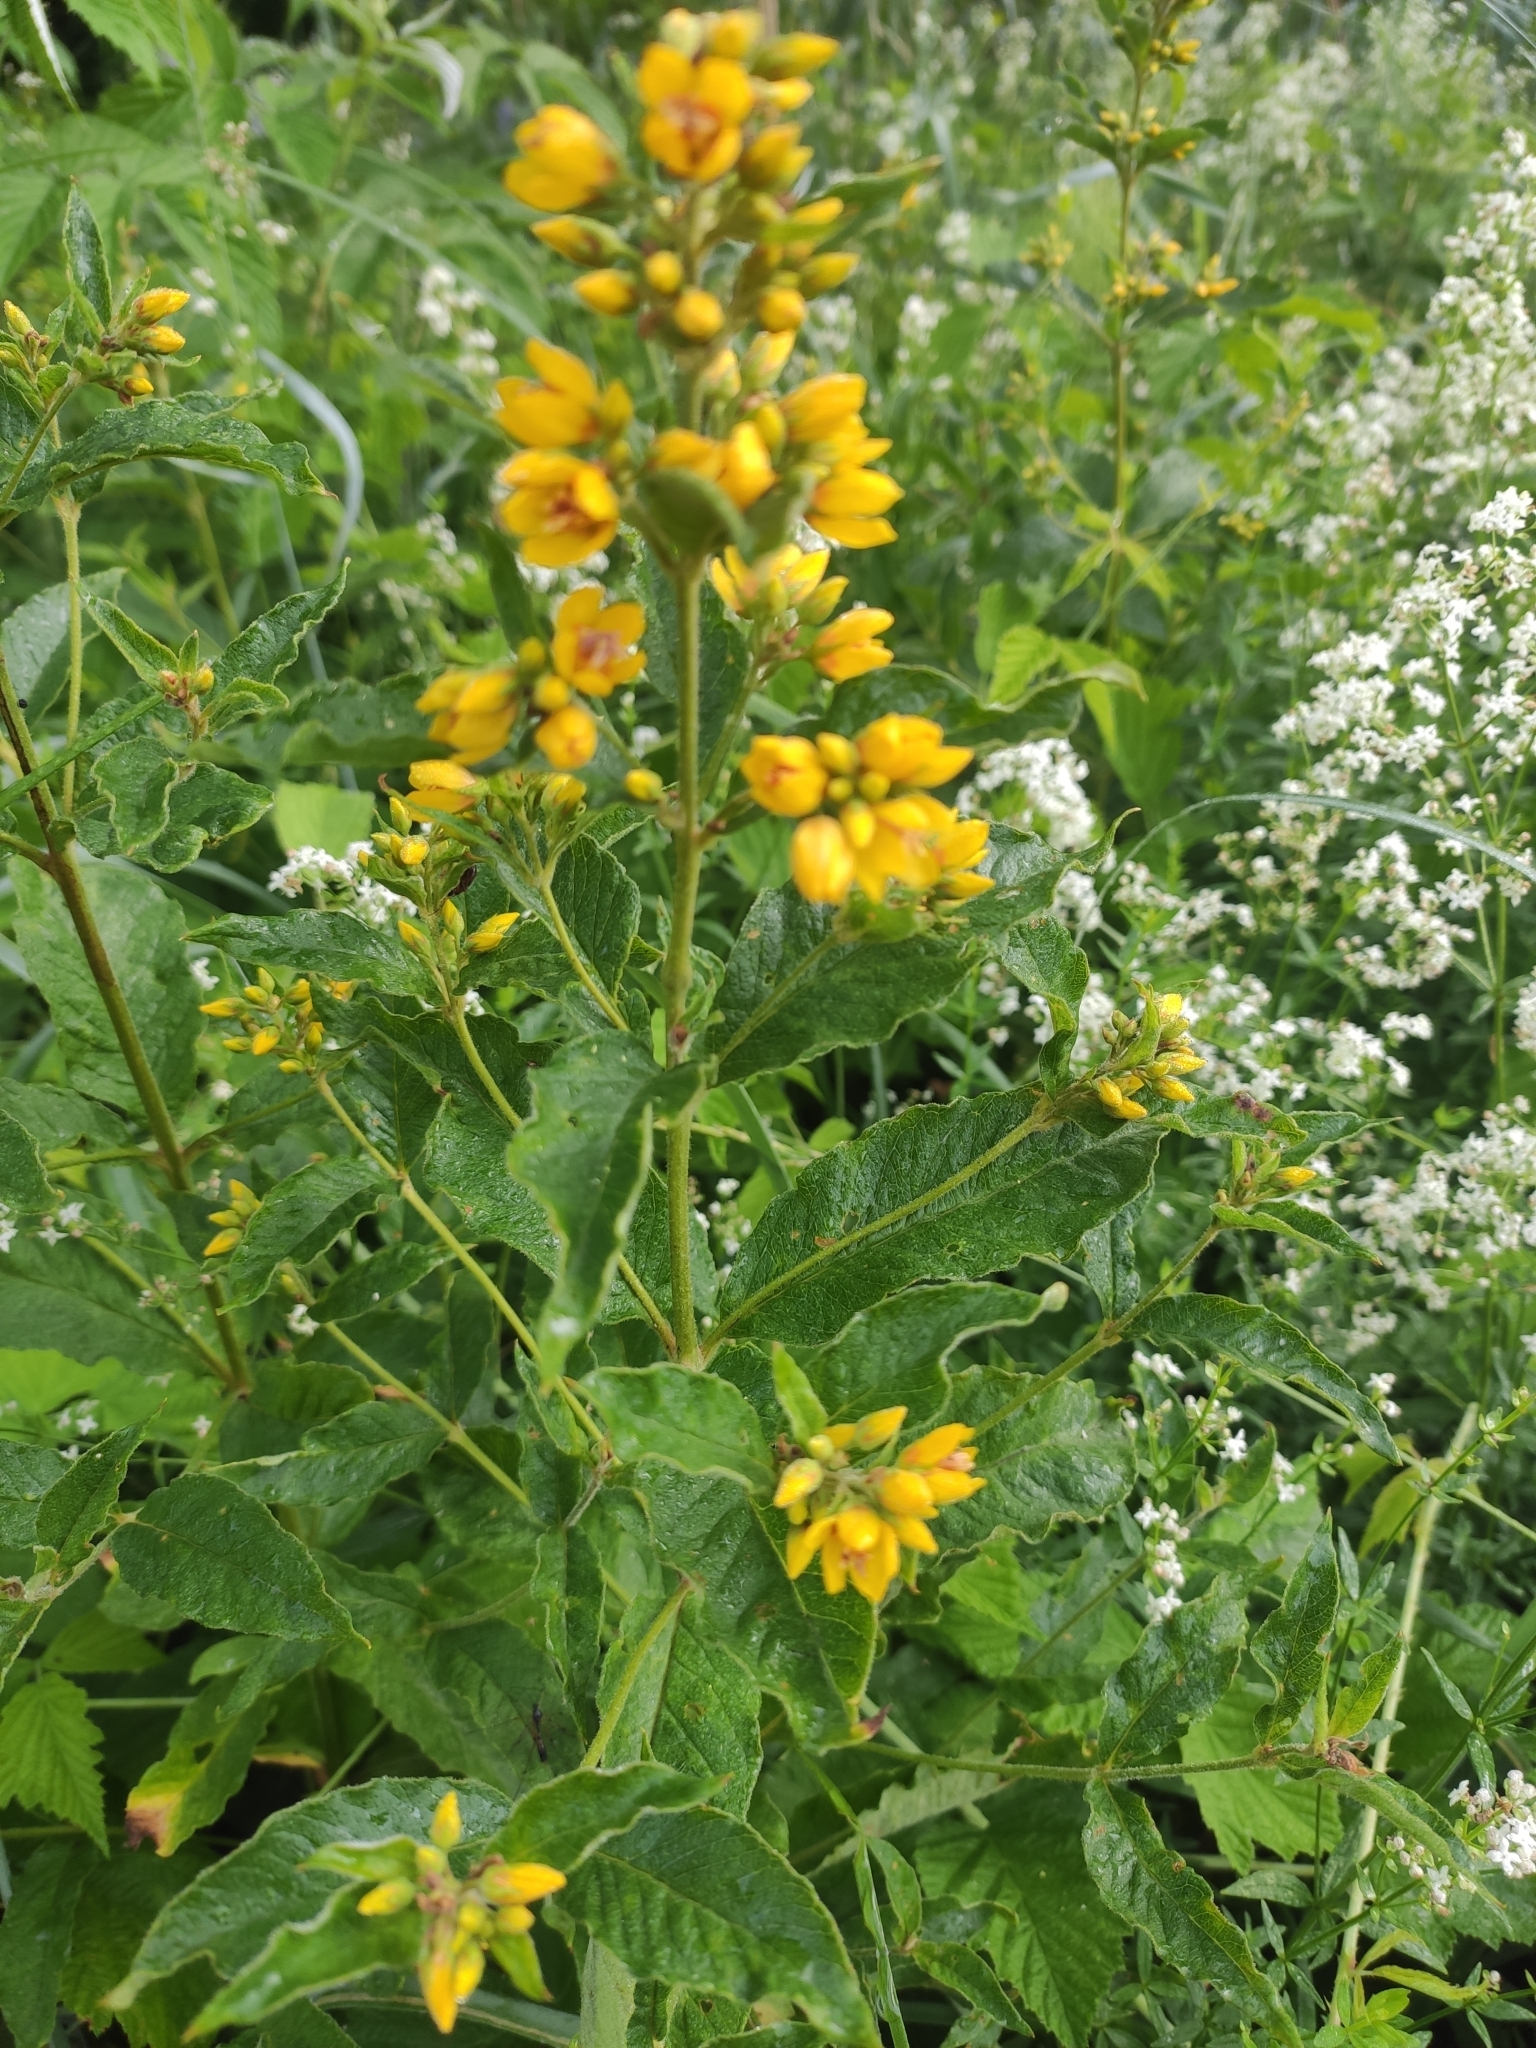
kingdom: Plantae
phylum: Tracheophyta
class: Magnoliopsida
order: Ericales
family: Primulaceae
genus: Lysimachia
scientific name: Lysimachia vulgaris
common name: Yellow loosestrife
